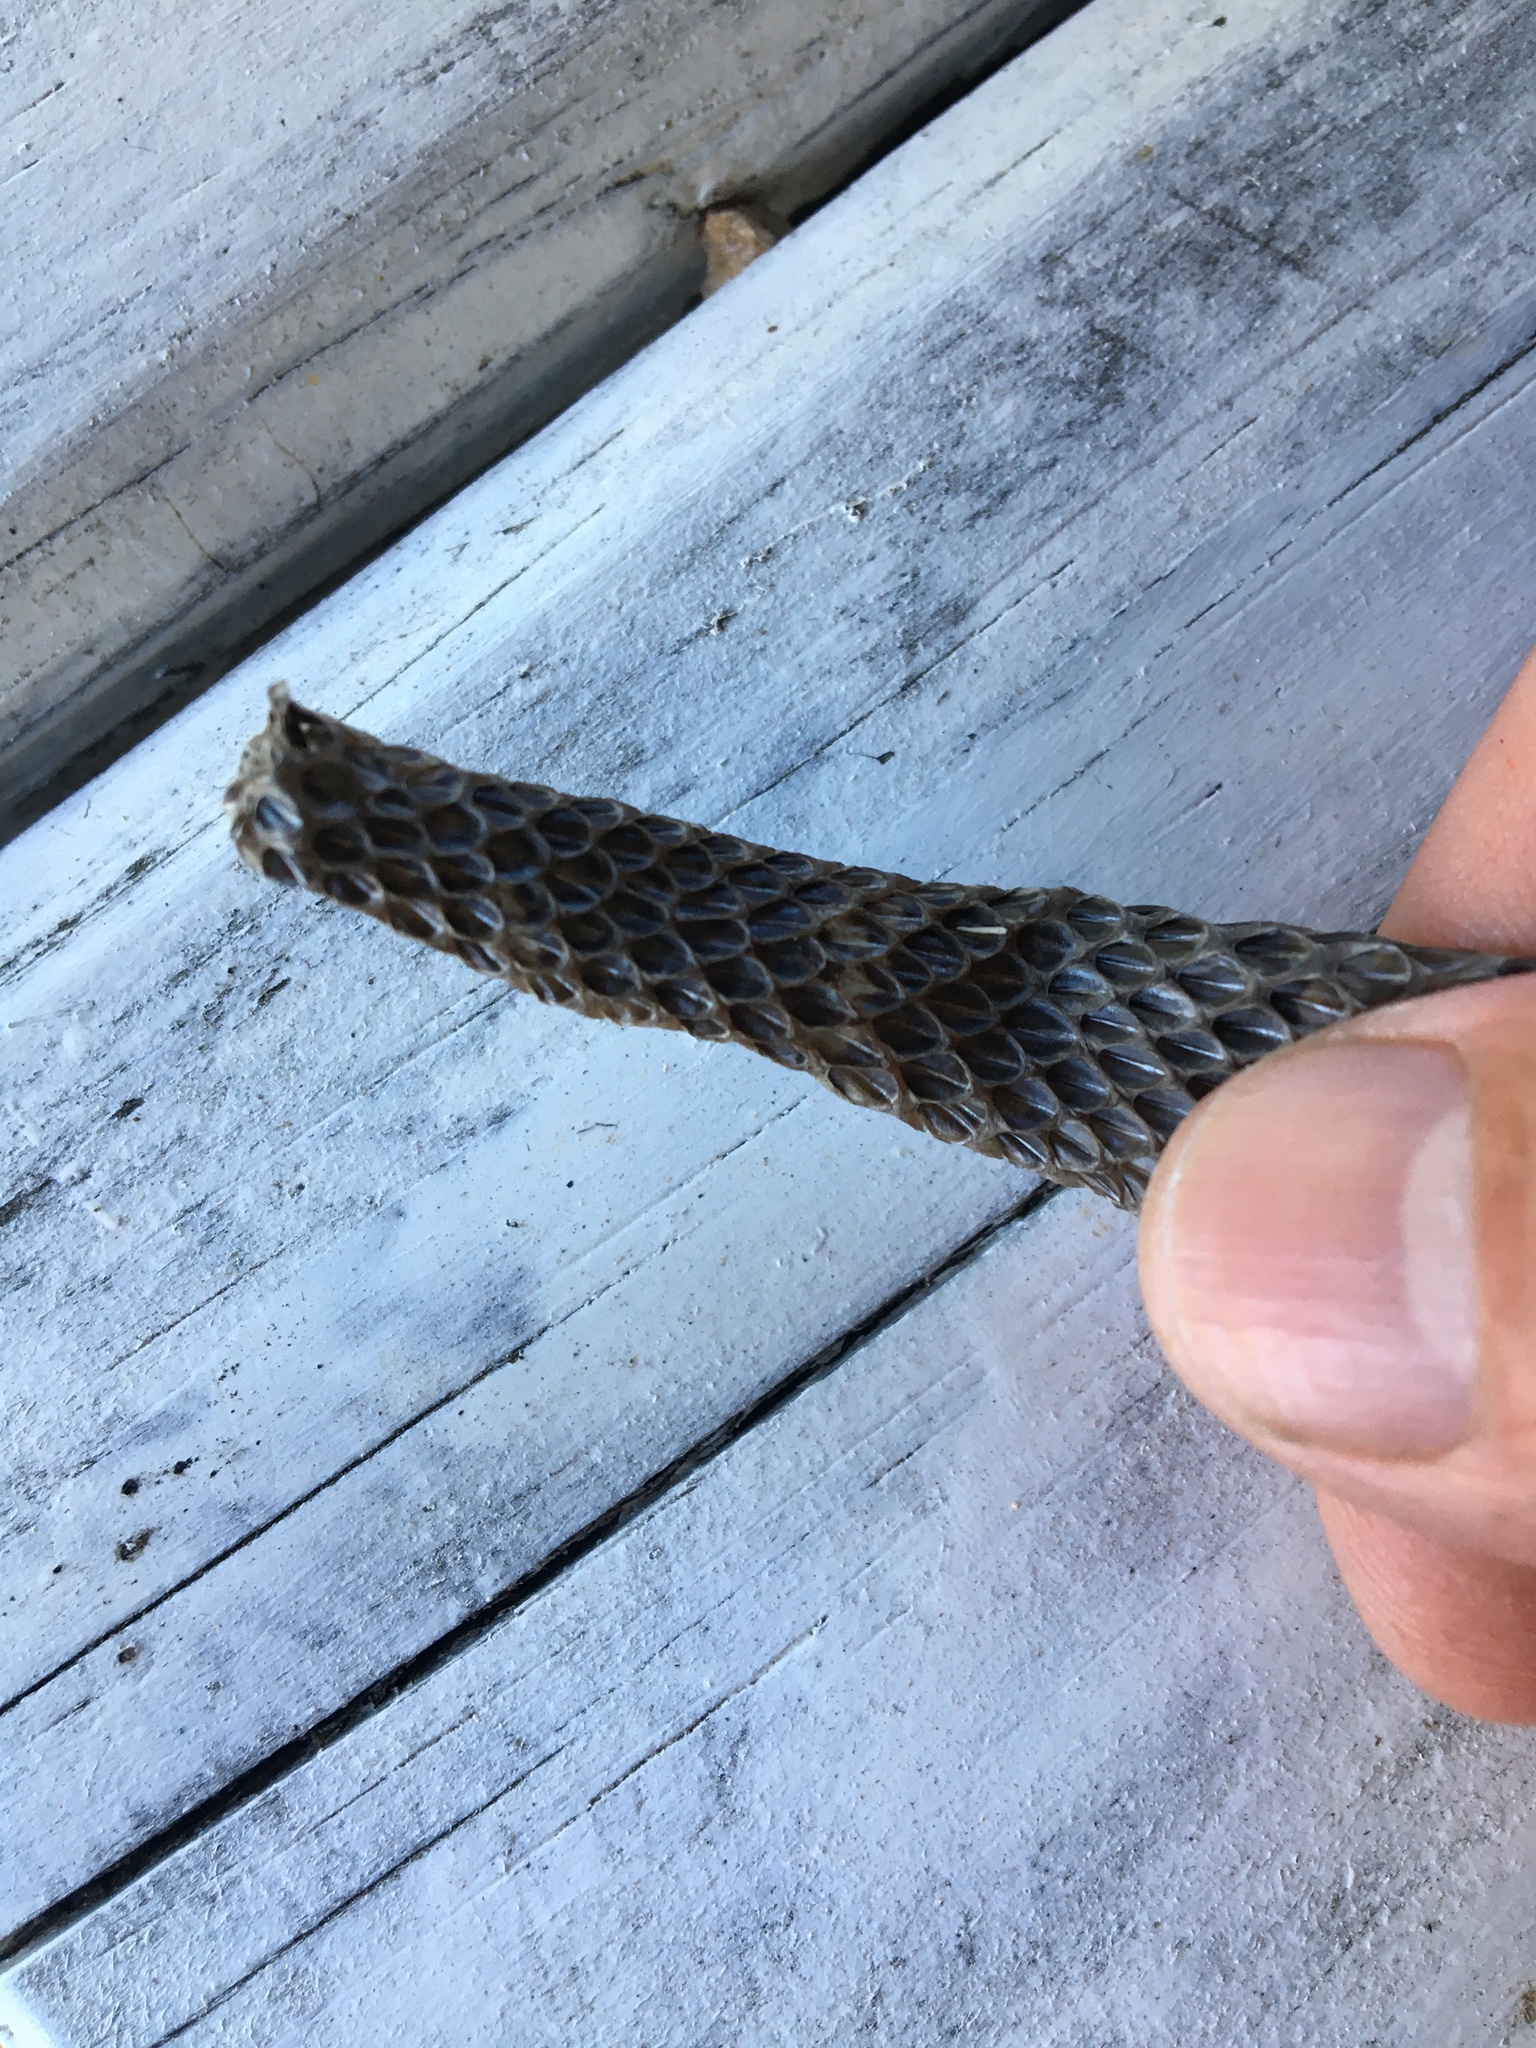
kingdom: Animalia
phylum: Chordata
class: Squamata
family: Viperidae
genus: Bitis
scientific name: Bitis arietans
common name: Puff adder
